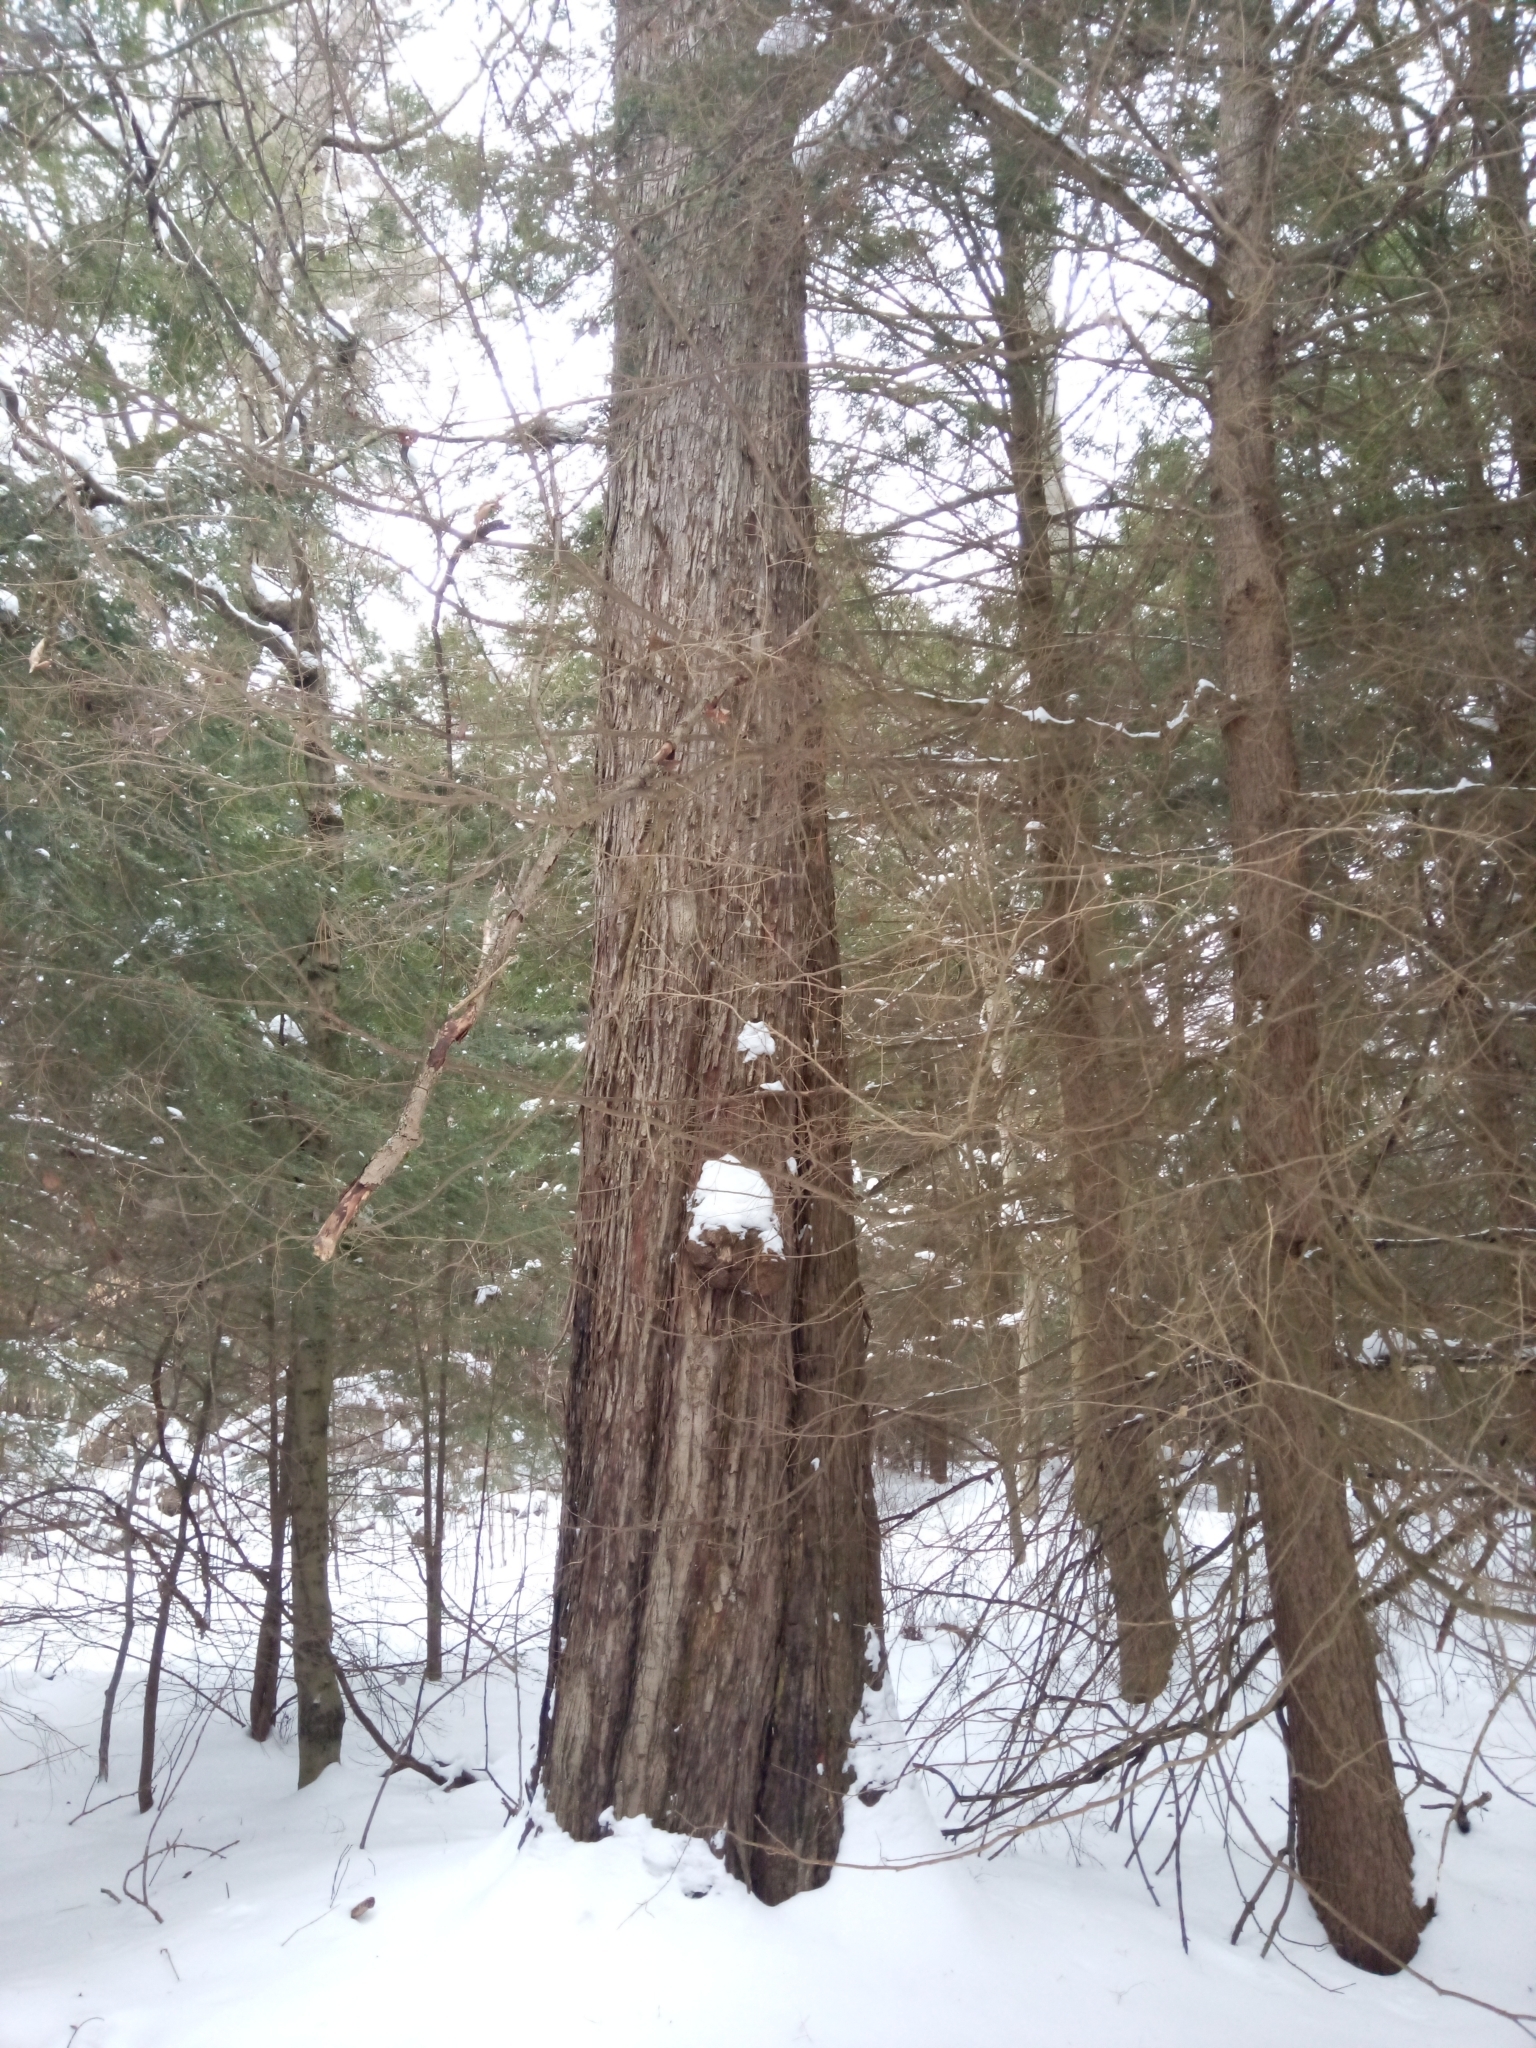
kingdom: Plantae
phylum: Tracheophyta
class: Magnoliopsida
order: Sapindales
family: Sapindaceae
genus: Acer
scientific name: Acer rubrum
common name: Red maple
